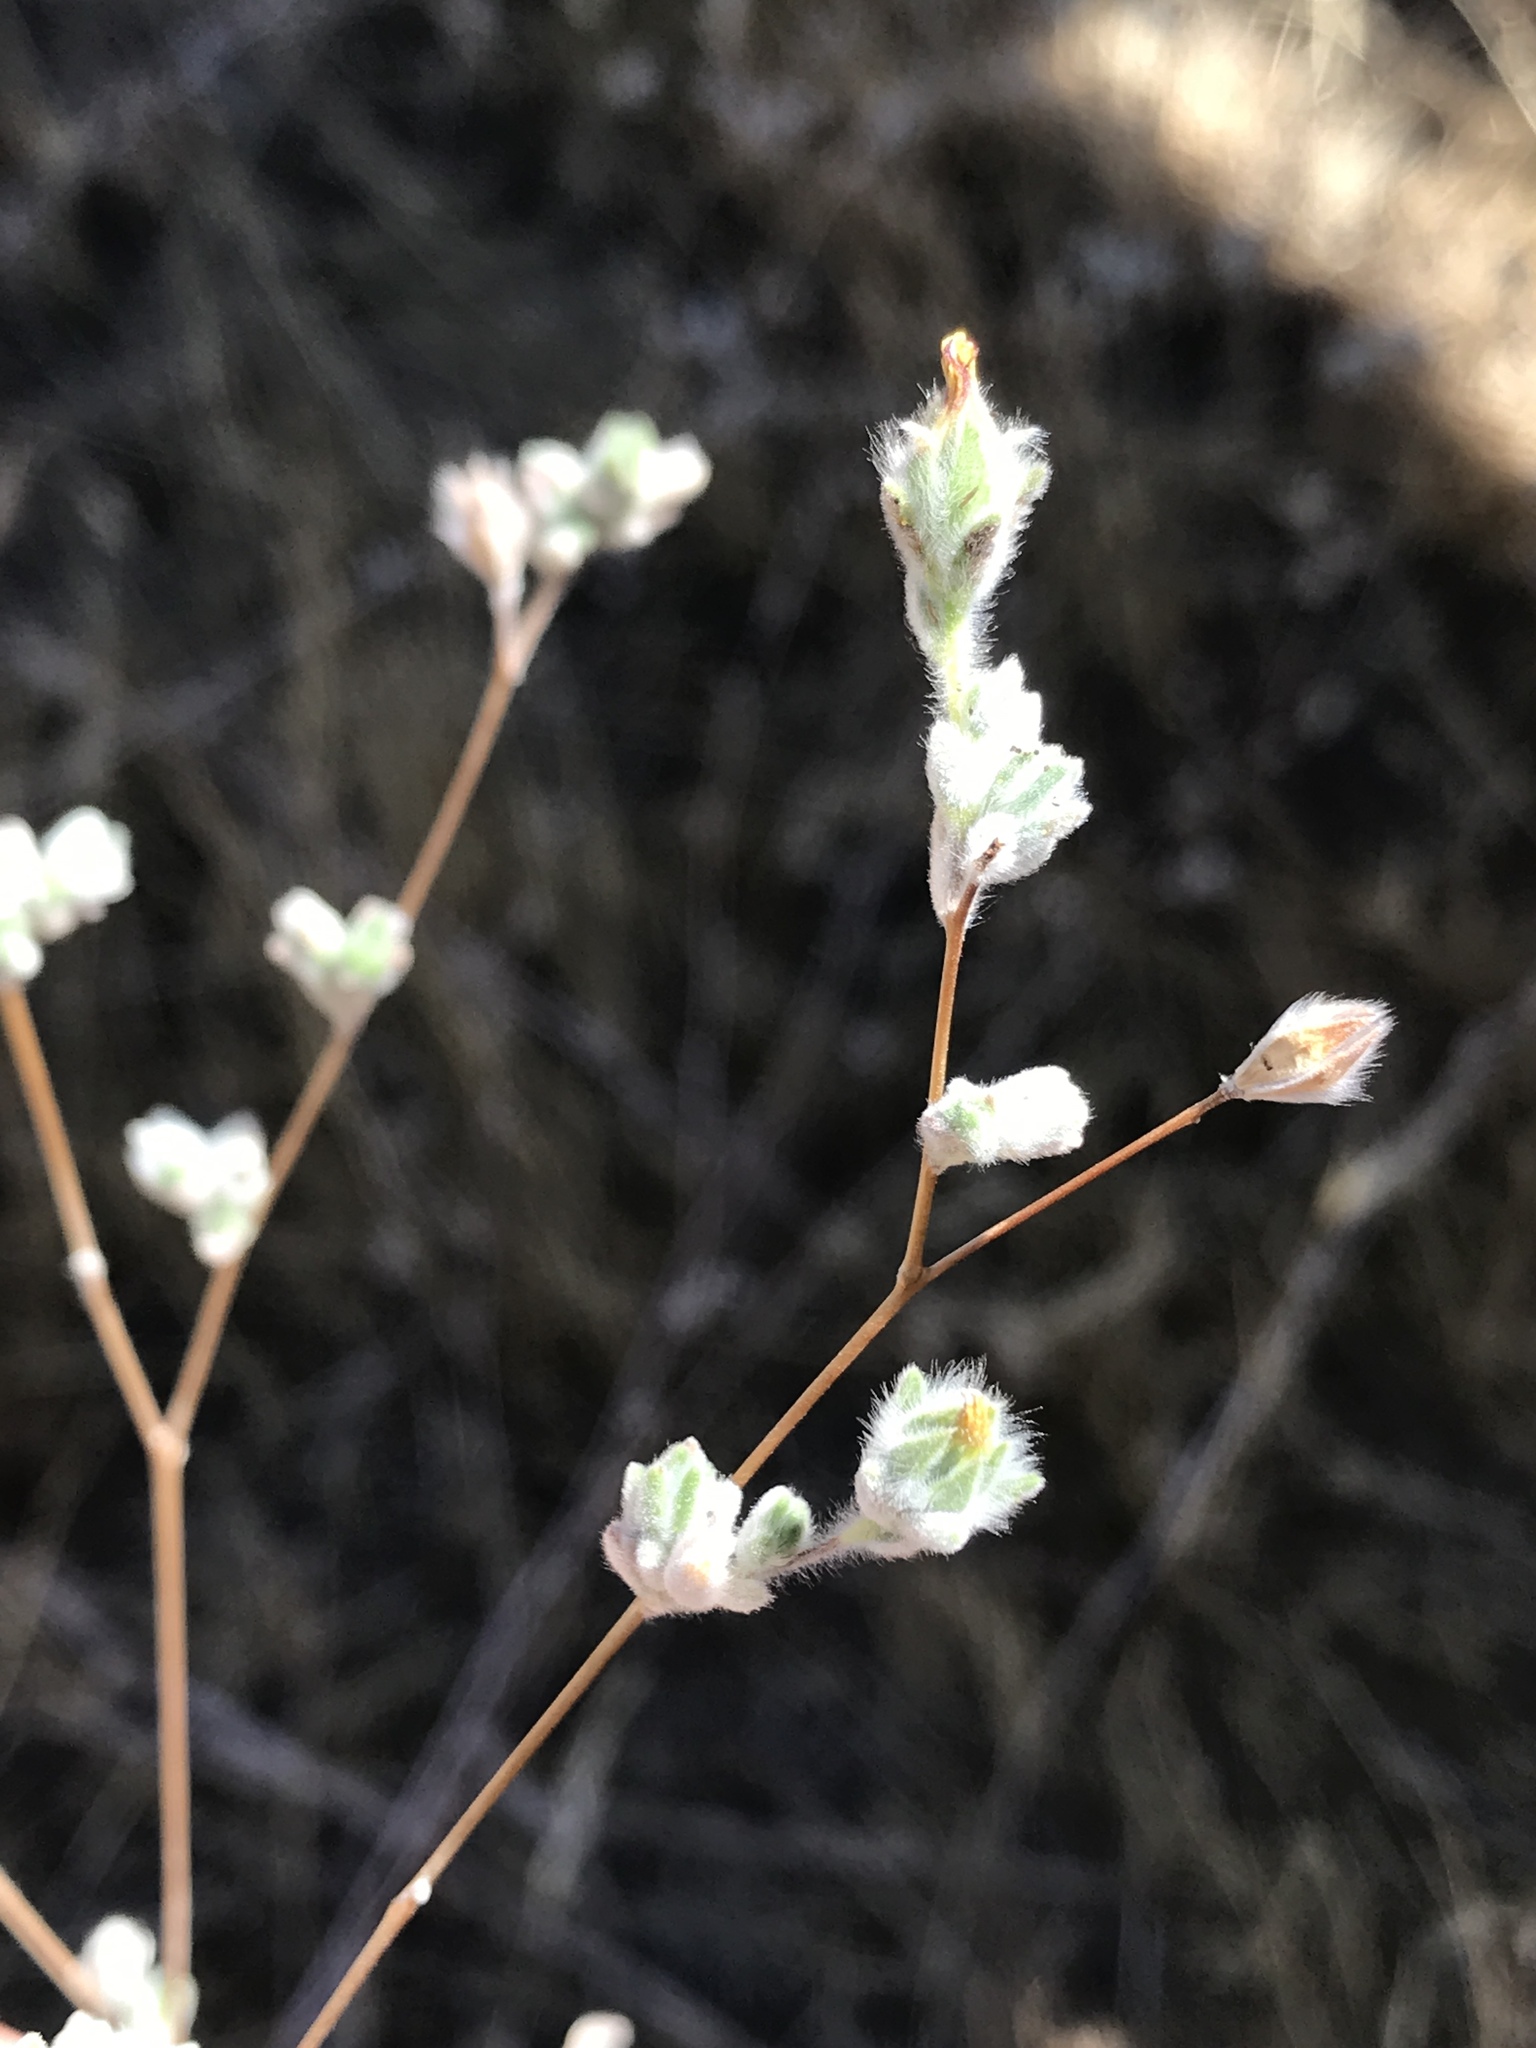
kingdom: Plantae
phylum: Tracheophyta
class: Magnoliopsida
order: Asterales
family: Asteraceae
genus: Lagophylla
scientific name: Lagophylla ramosissima
